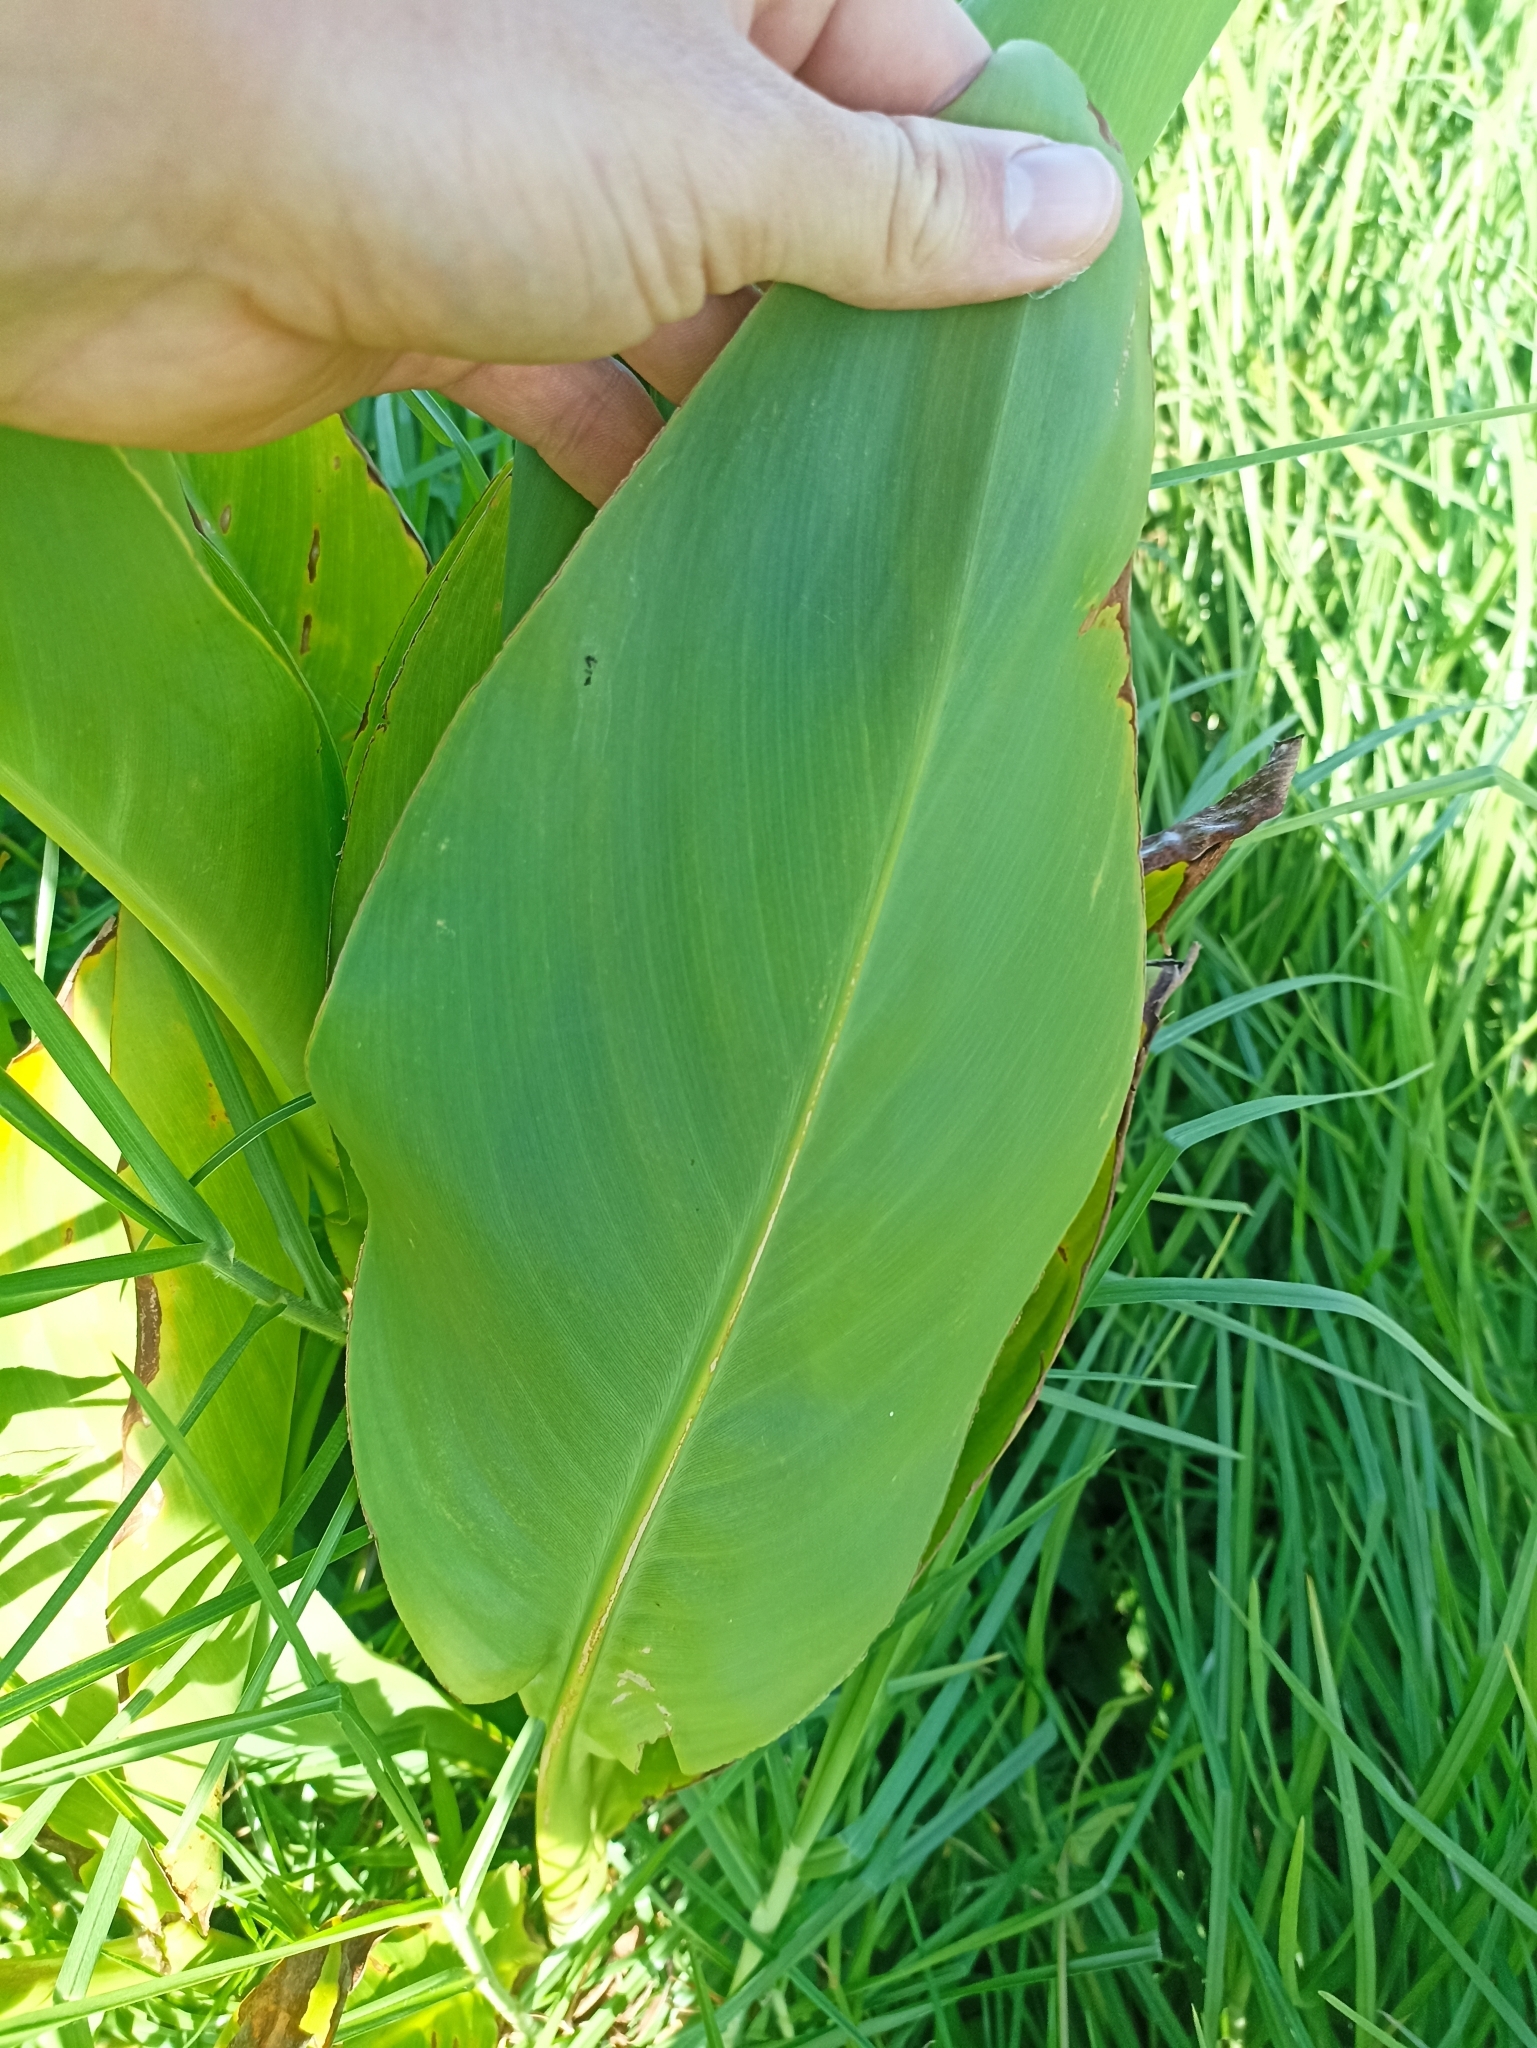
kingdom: Plantae
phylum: Tracheophyta
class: Liliopsida
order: Zingiberales
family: Cannaceae
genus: Canna
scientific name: Canna hybrida
